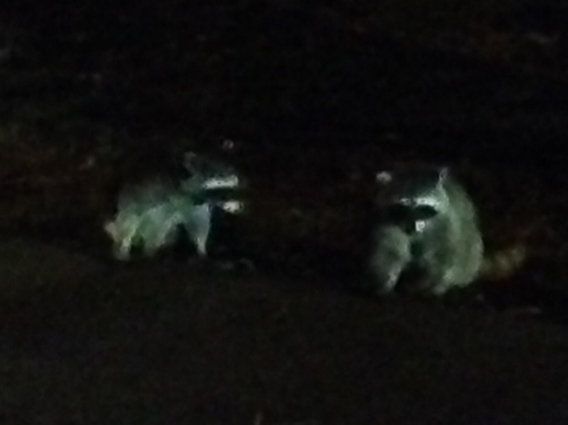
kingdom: Animalia
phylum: Chordata
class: Mammalia
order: Carnivora
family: Procyonidae
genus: Procyon
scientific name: Procyon lotor
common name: Raccoon
